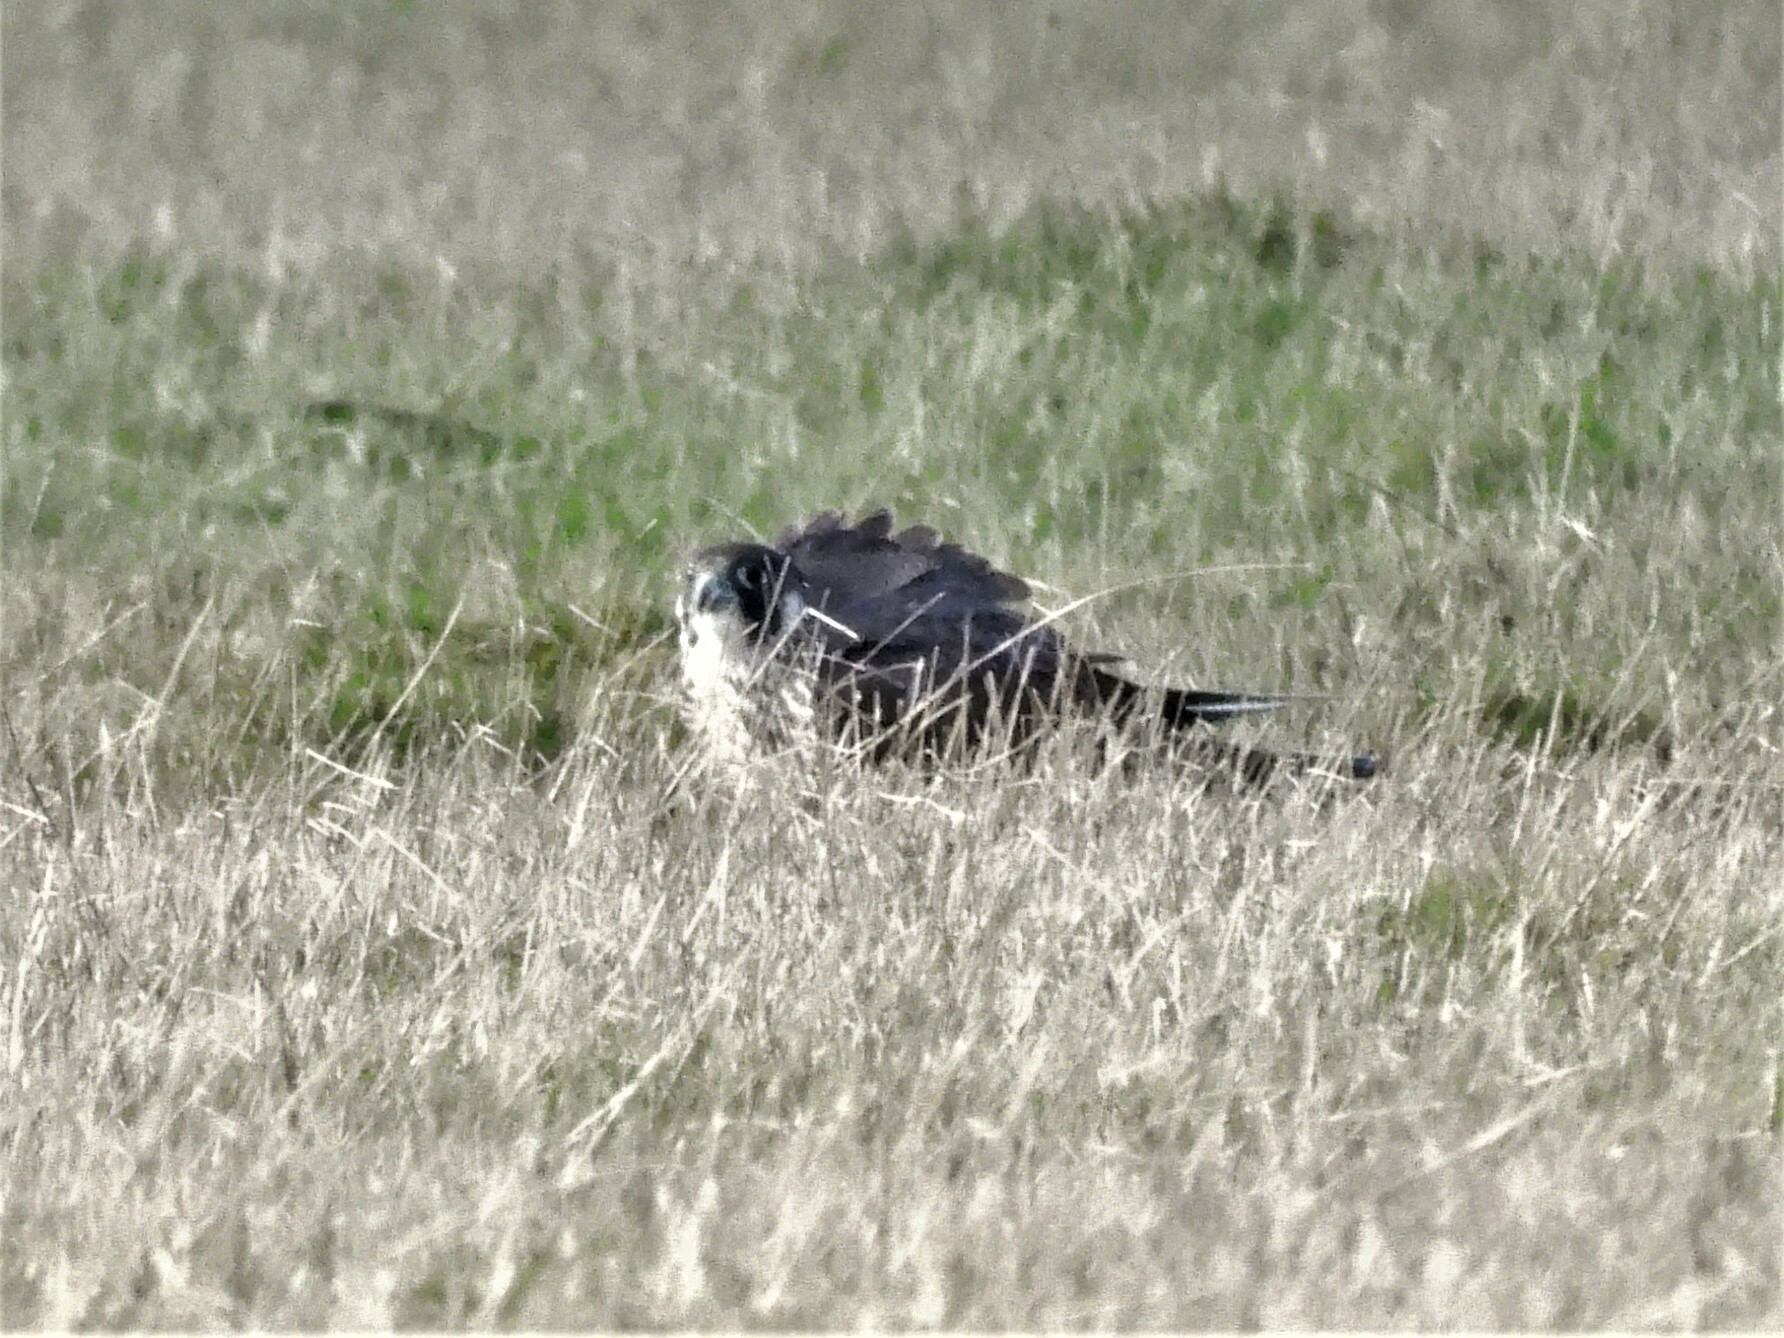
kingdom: Animalia
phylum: Chordata
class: Aves
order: Falconiformes
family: Falconidae
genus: Falco
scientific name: Falco peregrinus
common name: Peregrine falcon
